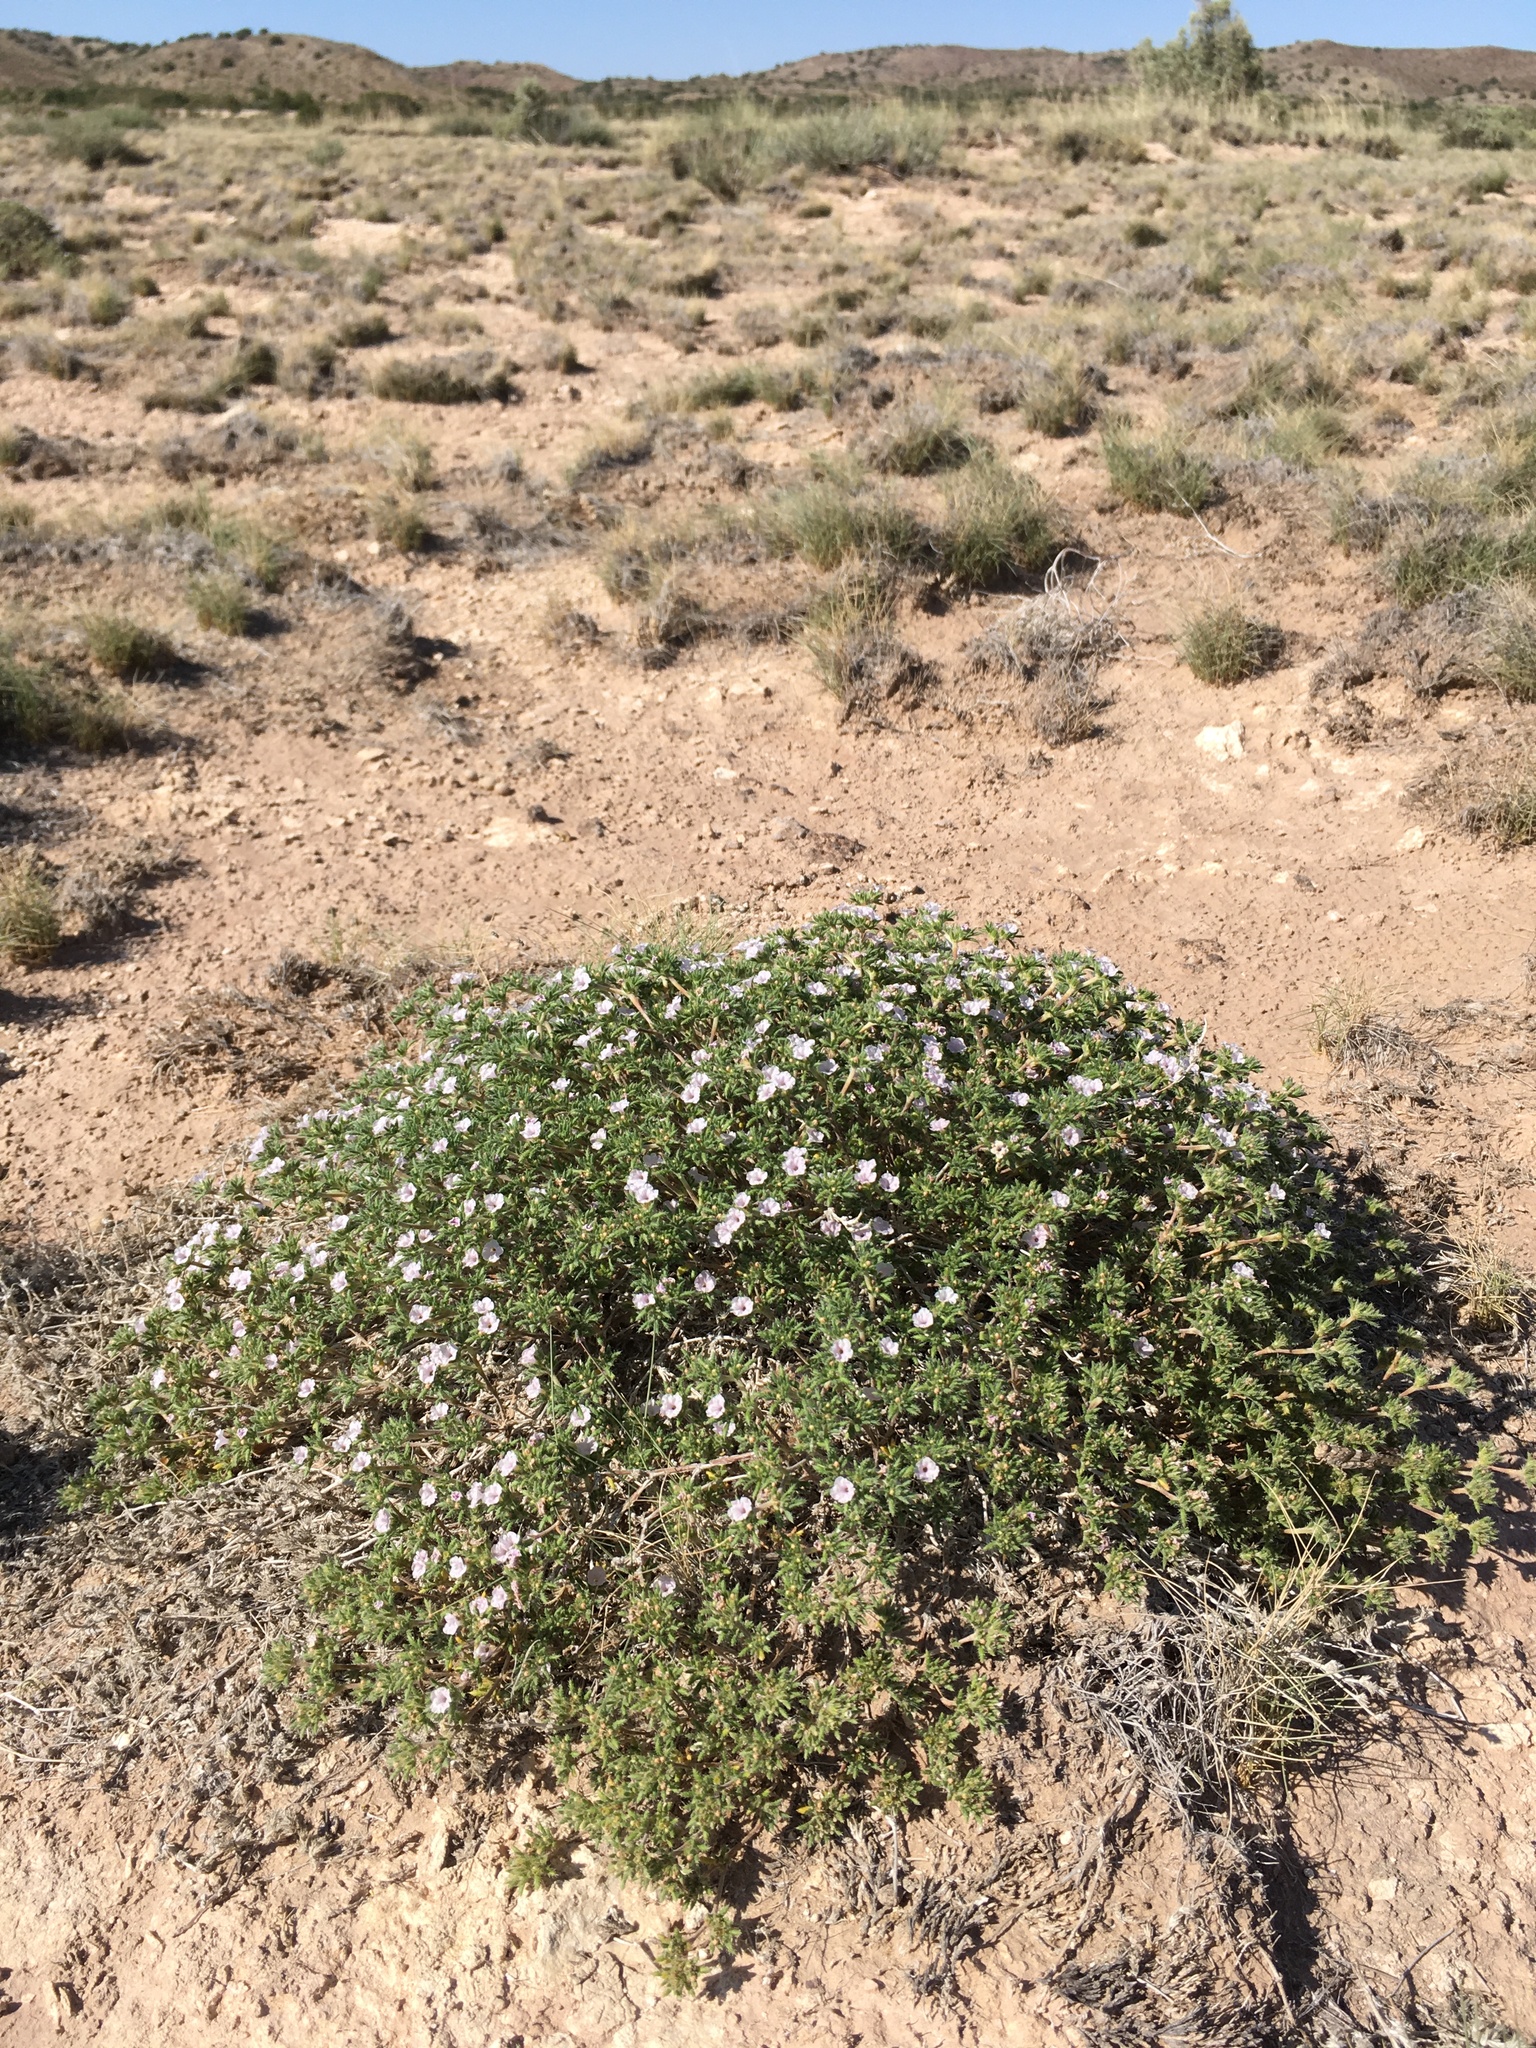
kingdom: Plantae
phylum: Tracheophyta
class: Magnoliopsida
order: Boraginales
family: Ehretiaceae
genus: Tiquilia
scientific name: Tiquilia hispidissima
